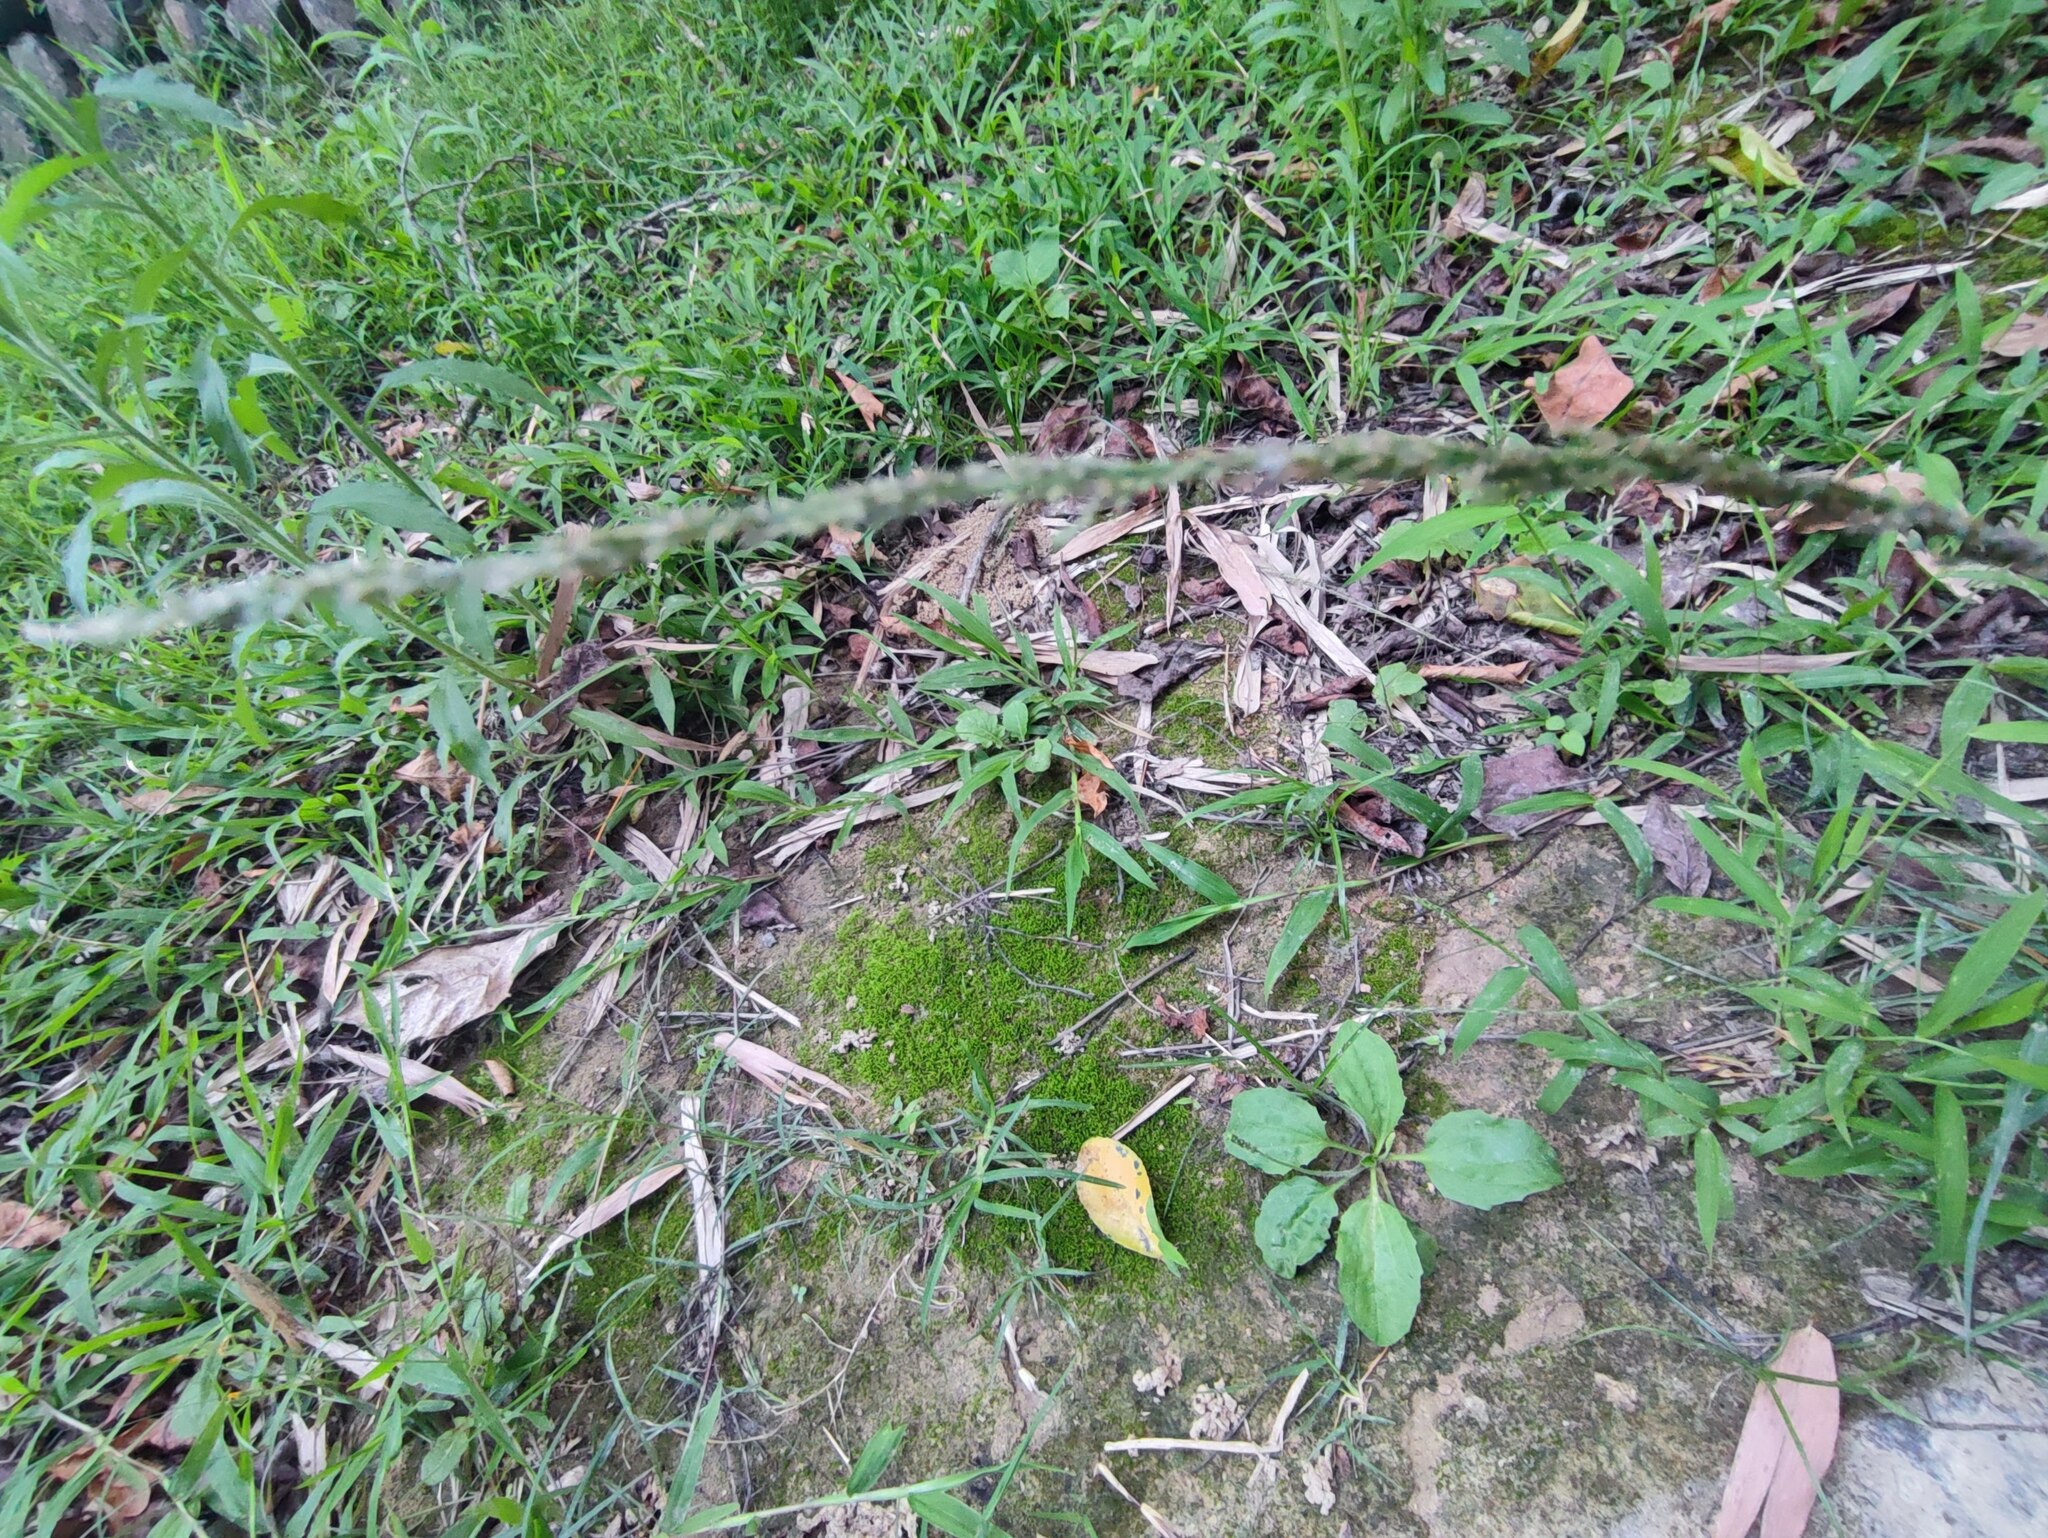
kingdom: Plantae
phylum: Tracheophyta
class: Liliopsida
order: Poales
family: Poaceae
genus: Sporobolus
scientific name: Sporobolus indicus
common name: Smut grass
